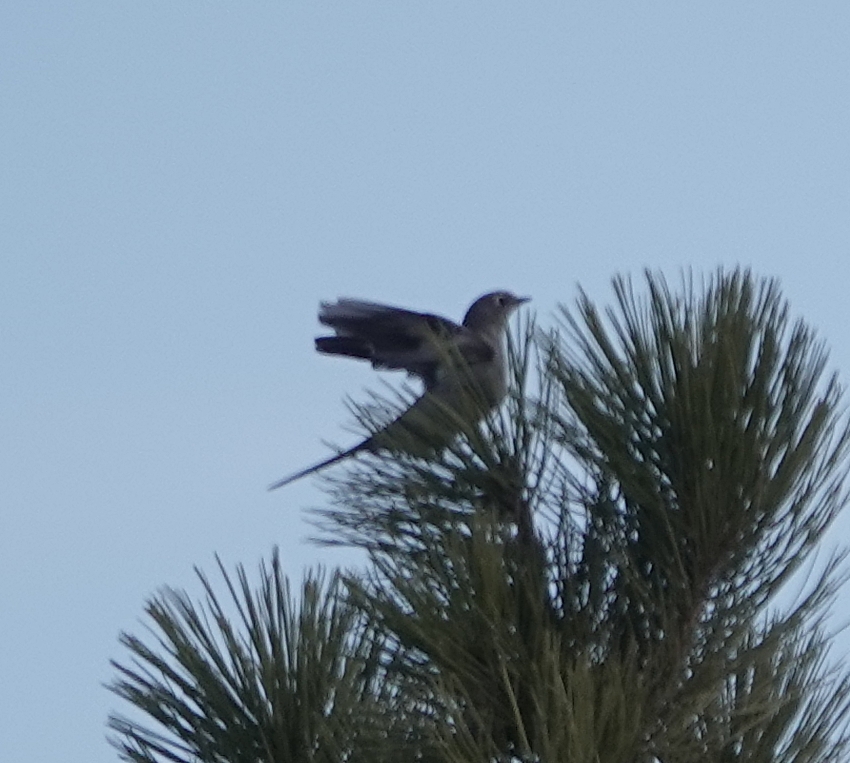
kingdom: Animalia
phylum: Chordata
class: Aves
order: Passeriformes
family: Turdidae
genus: Myadestes
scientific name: Myadestes townsendi
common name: Townsend's solitaire
